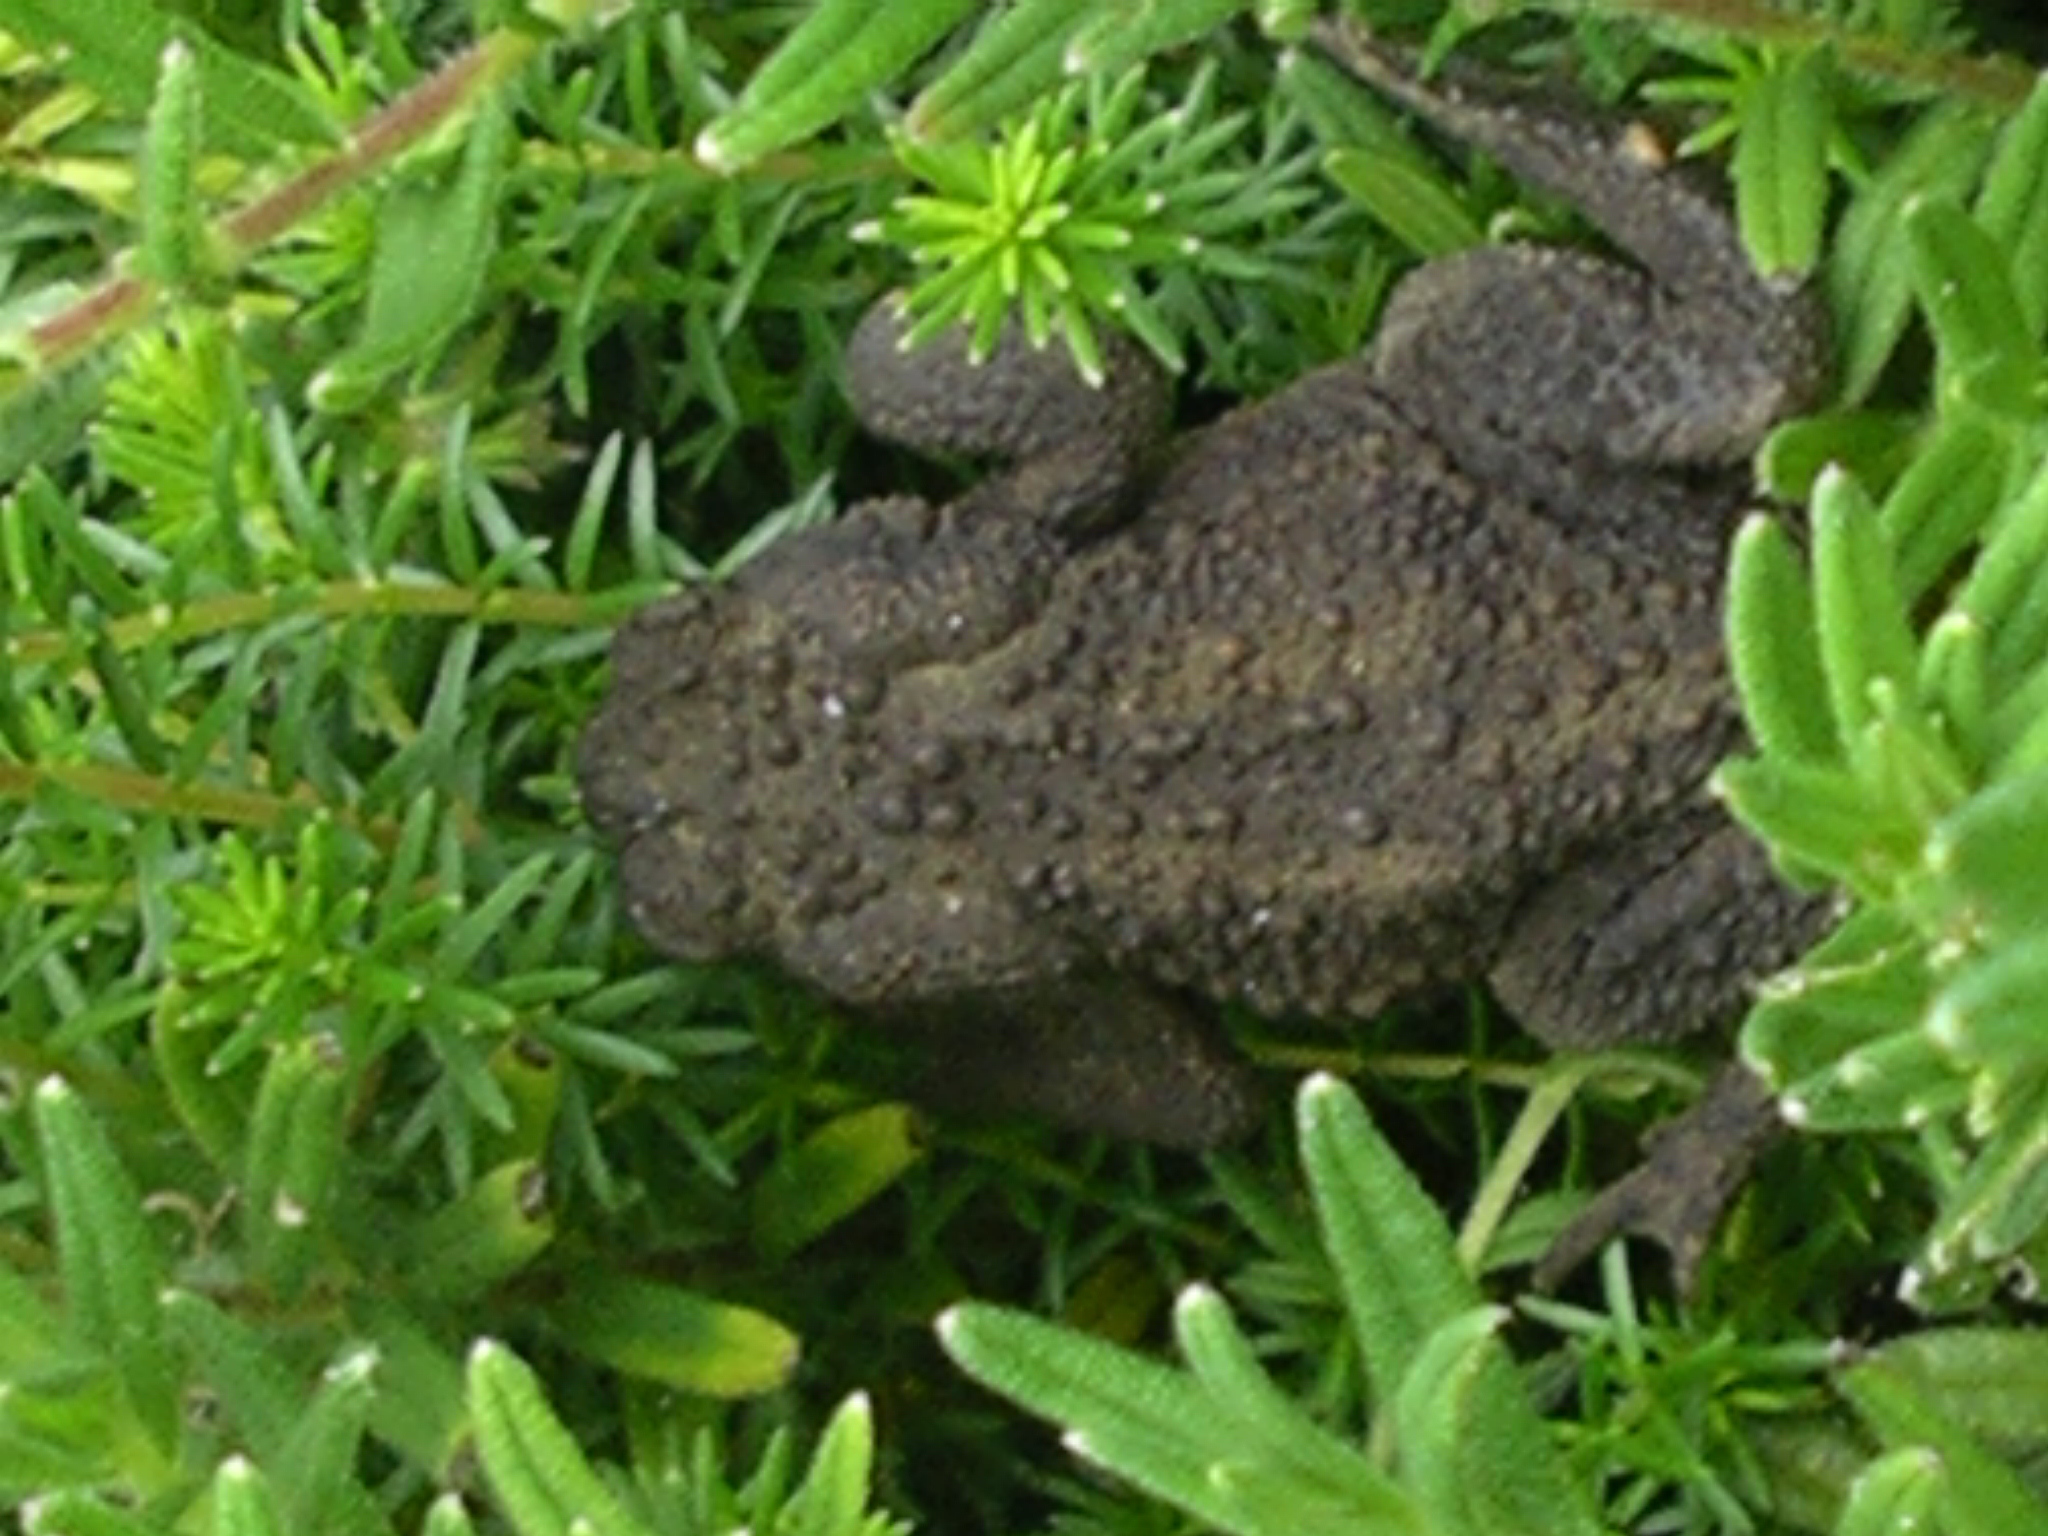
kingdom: Animalia
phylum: Chordata
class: Amphibia
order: Anura
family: Bufonidae
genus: Bufo
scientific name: Bufo bufo
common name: Common toad
